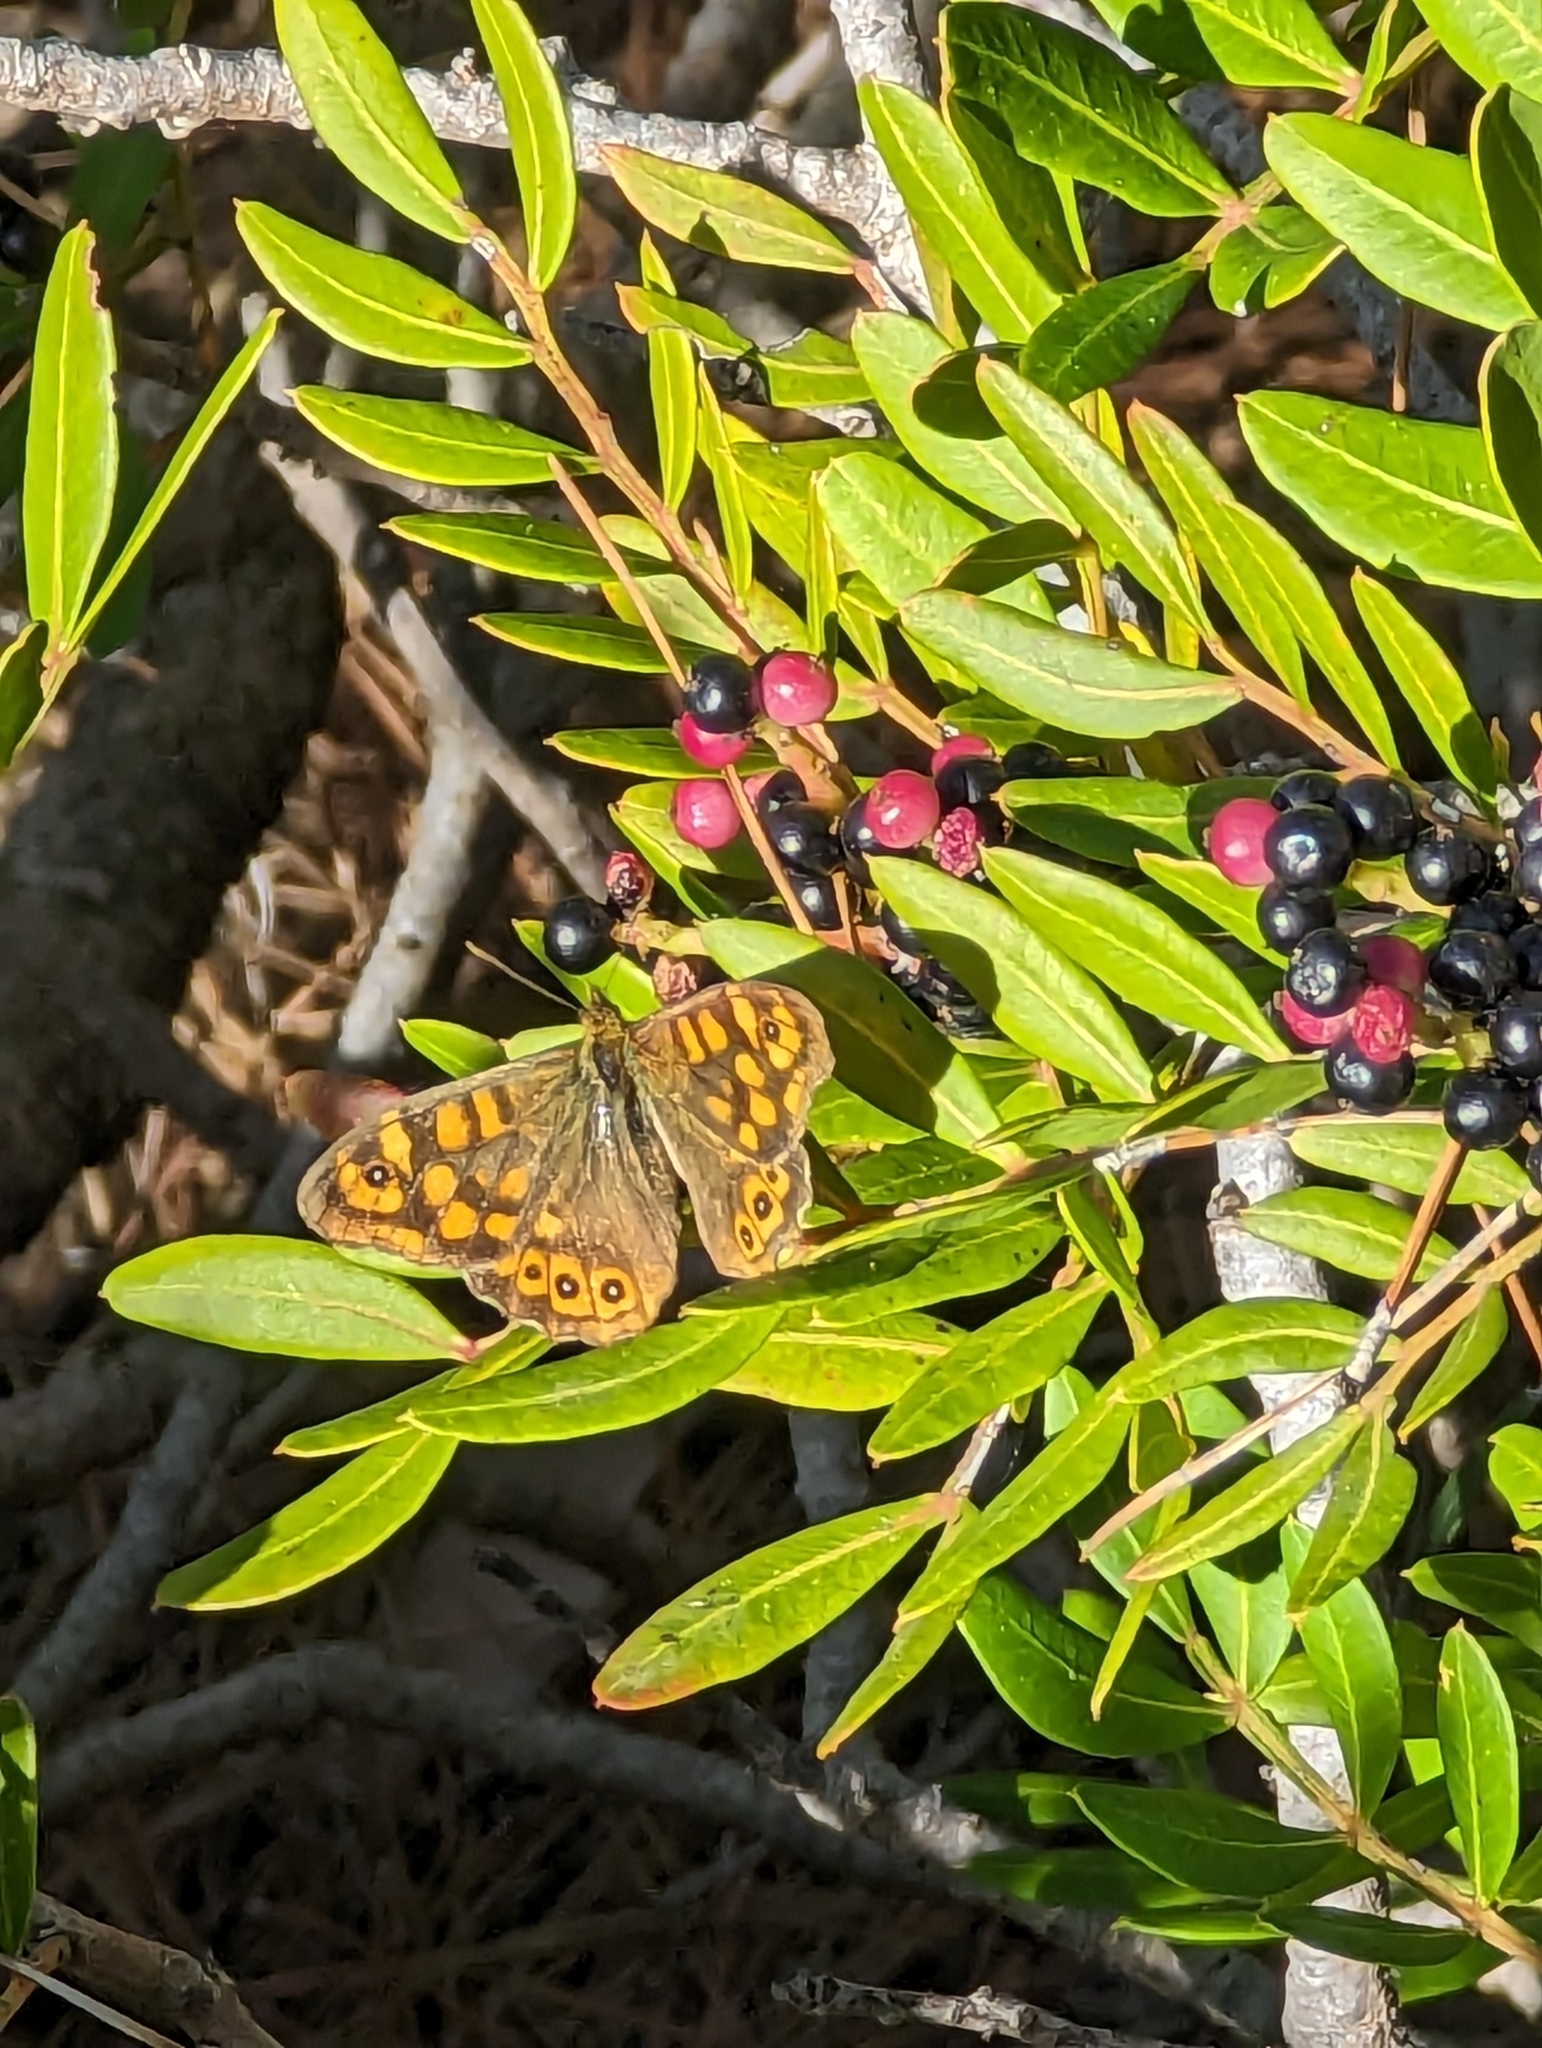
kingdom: Animalia
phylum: Arthropoda
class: Insecta
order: Lepidoptera
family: Nymphalidae
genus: Pararge
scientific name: Pararge aegeria
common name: Speckled wood
